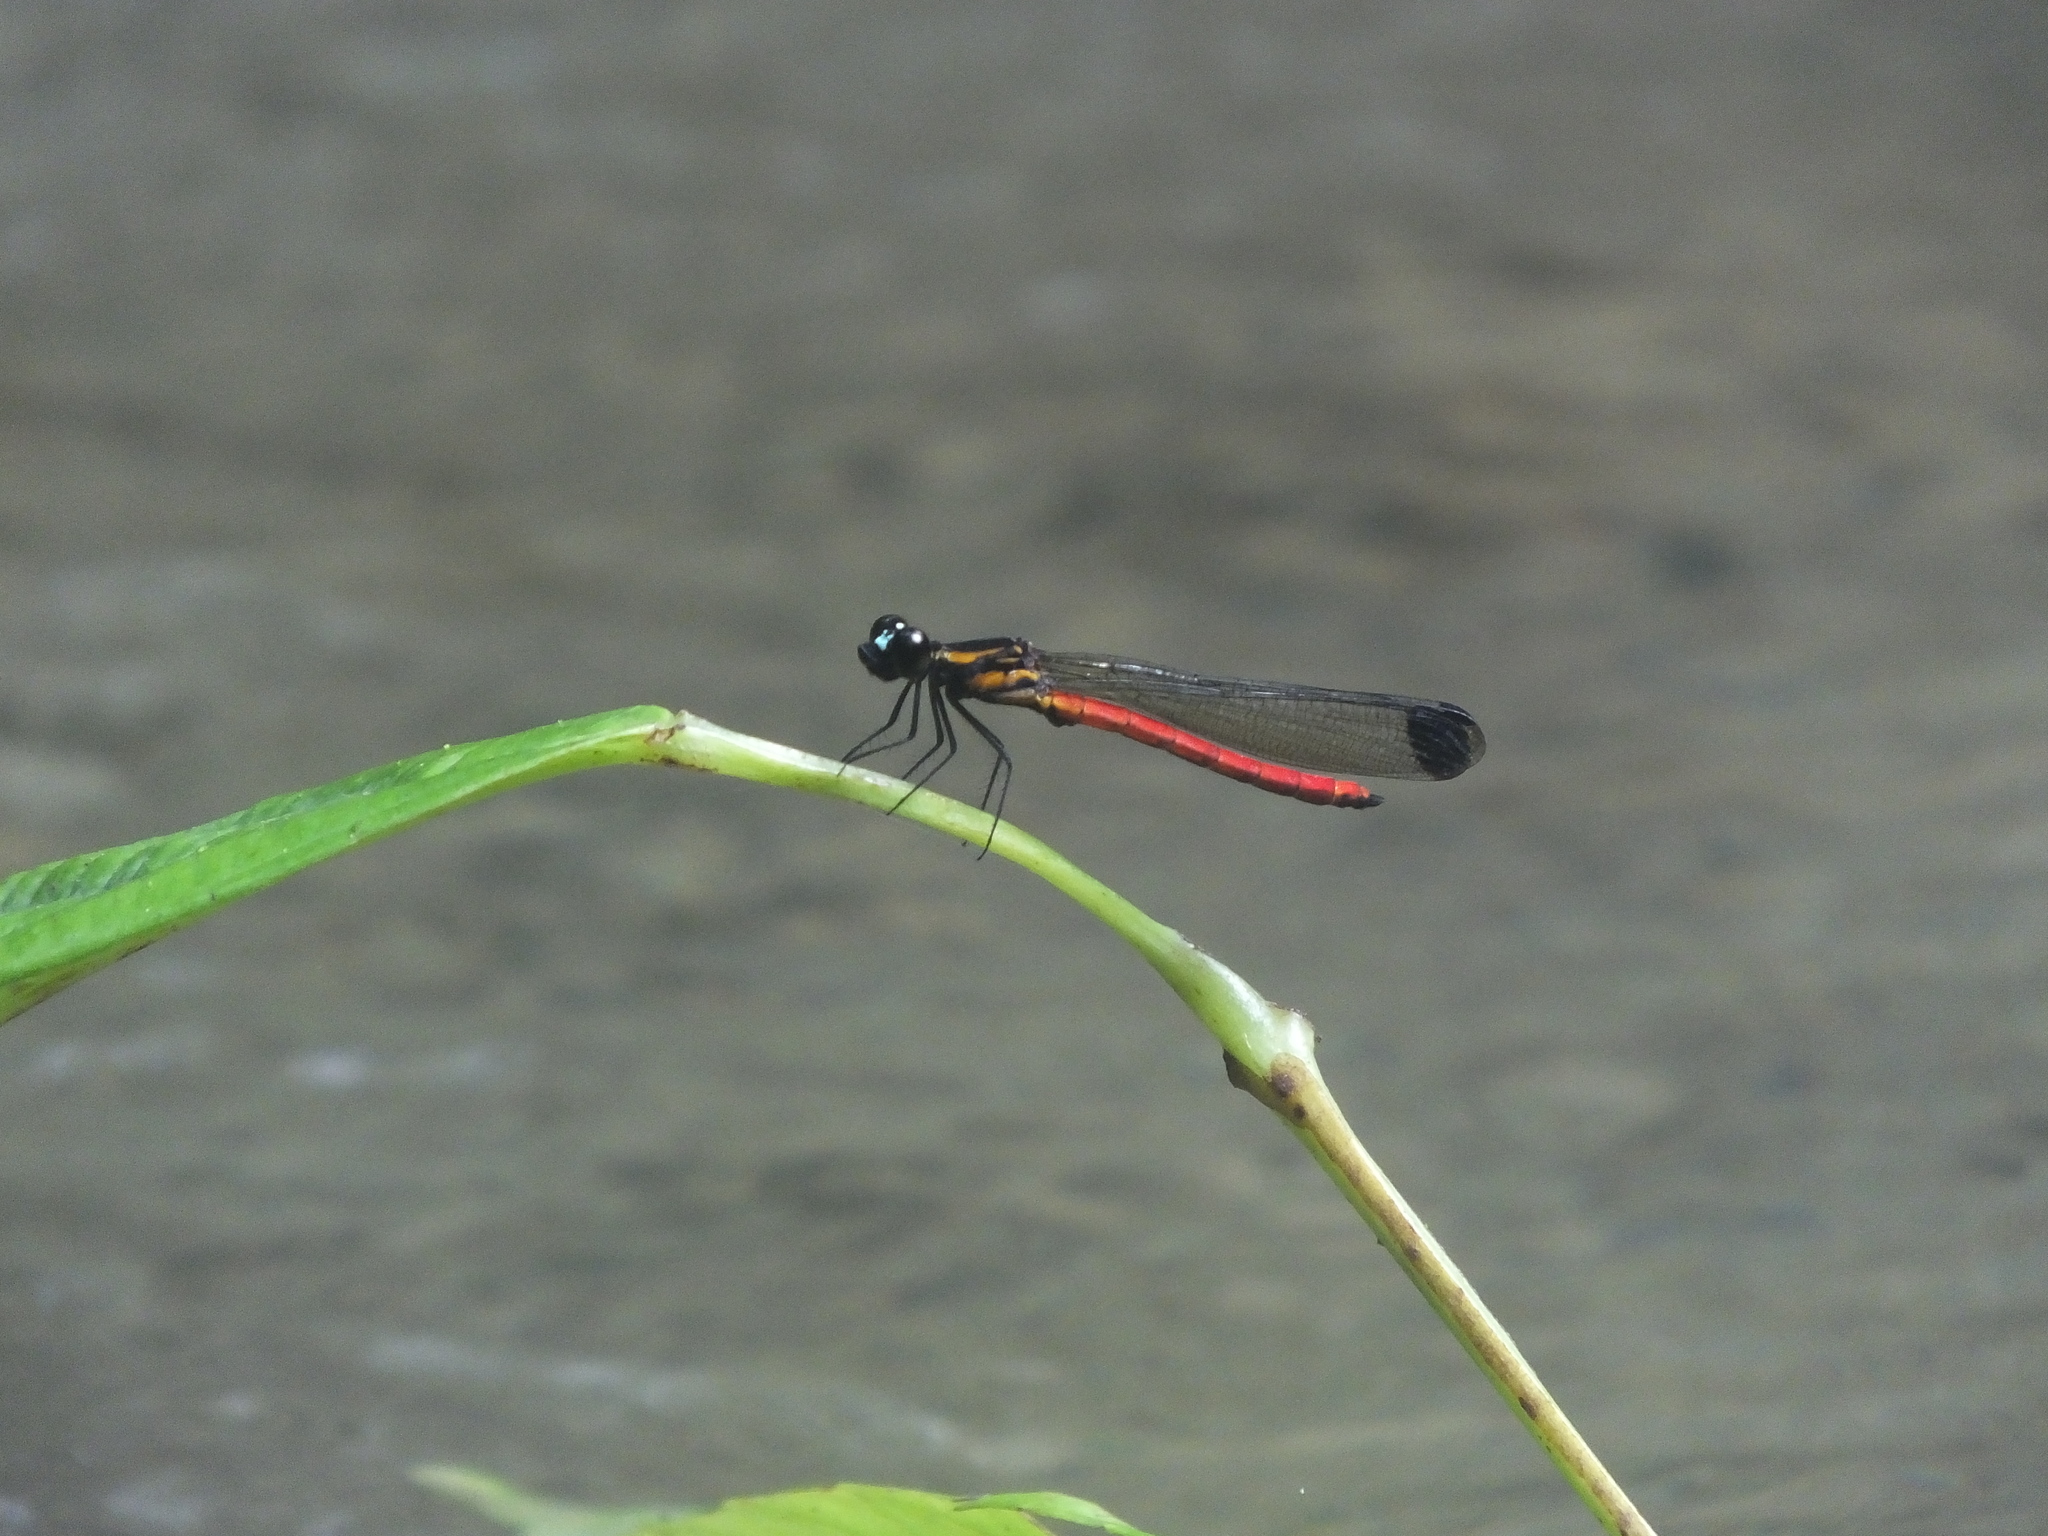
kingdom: Animalia
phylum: Arthropoda
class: Insecta
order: Odonata
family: Chlorocyphidae
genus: Libellago
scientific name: Libellago rufescens
